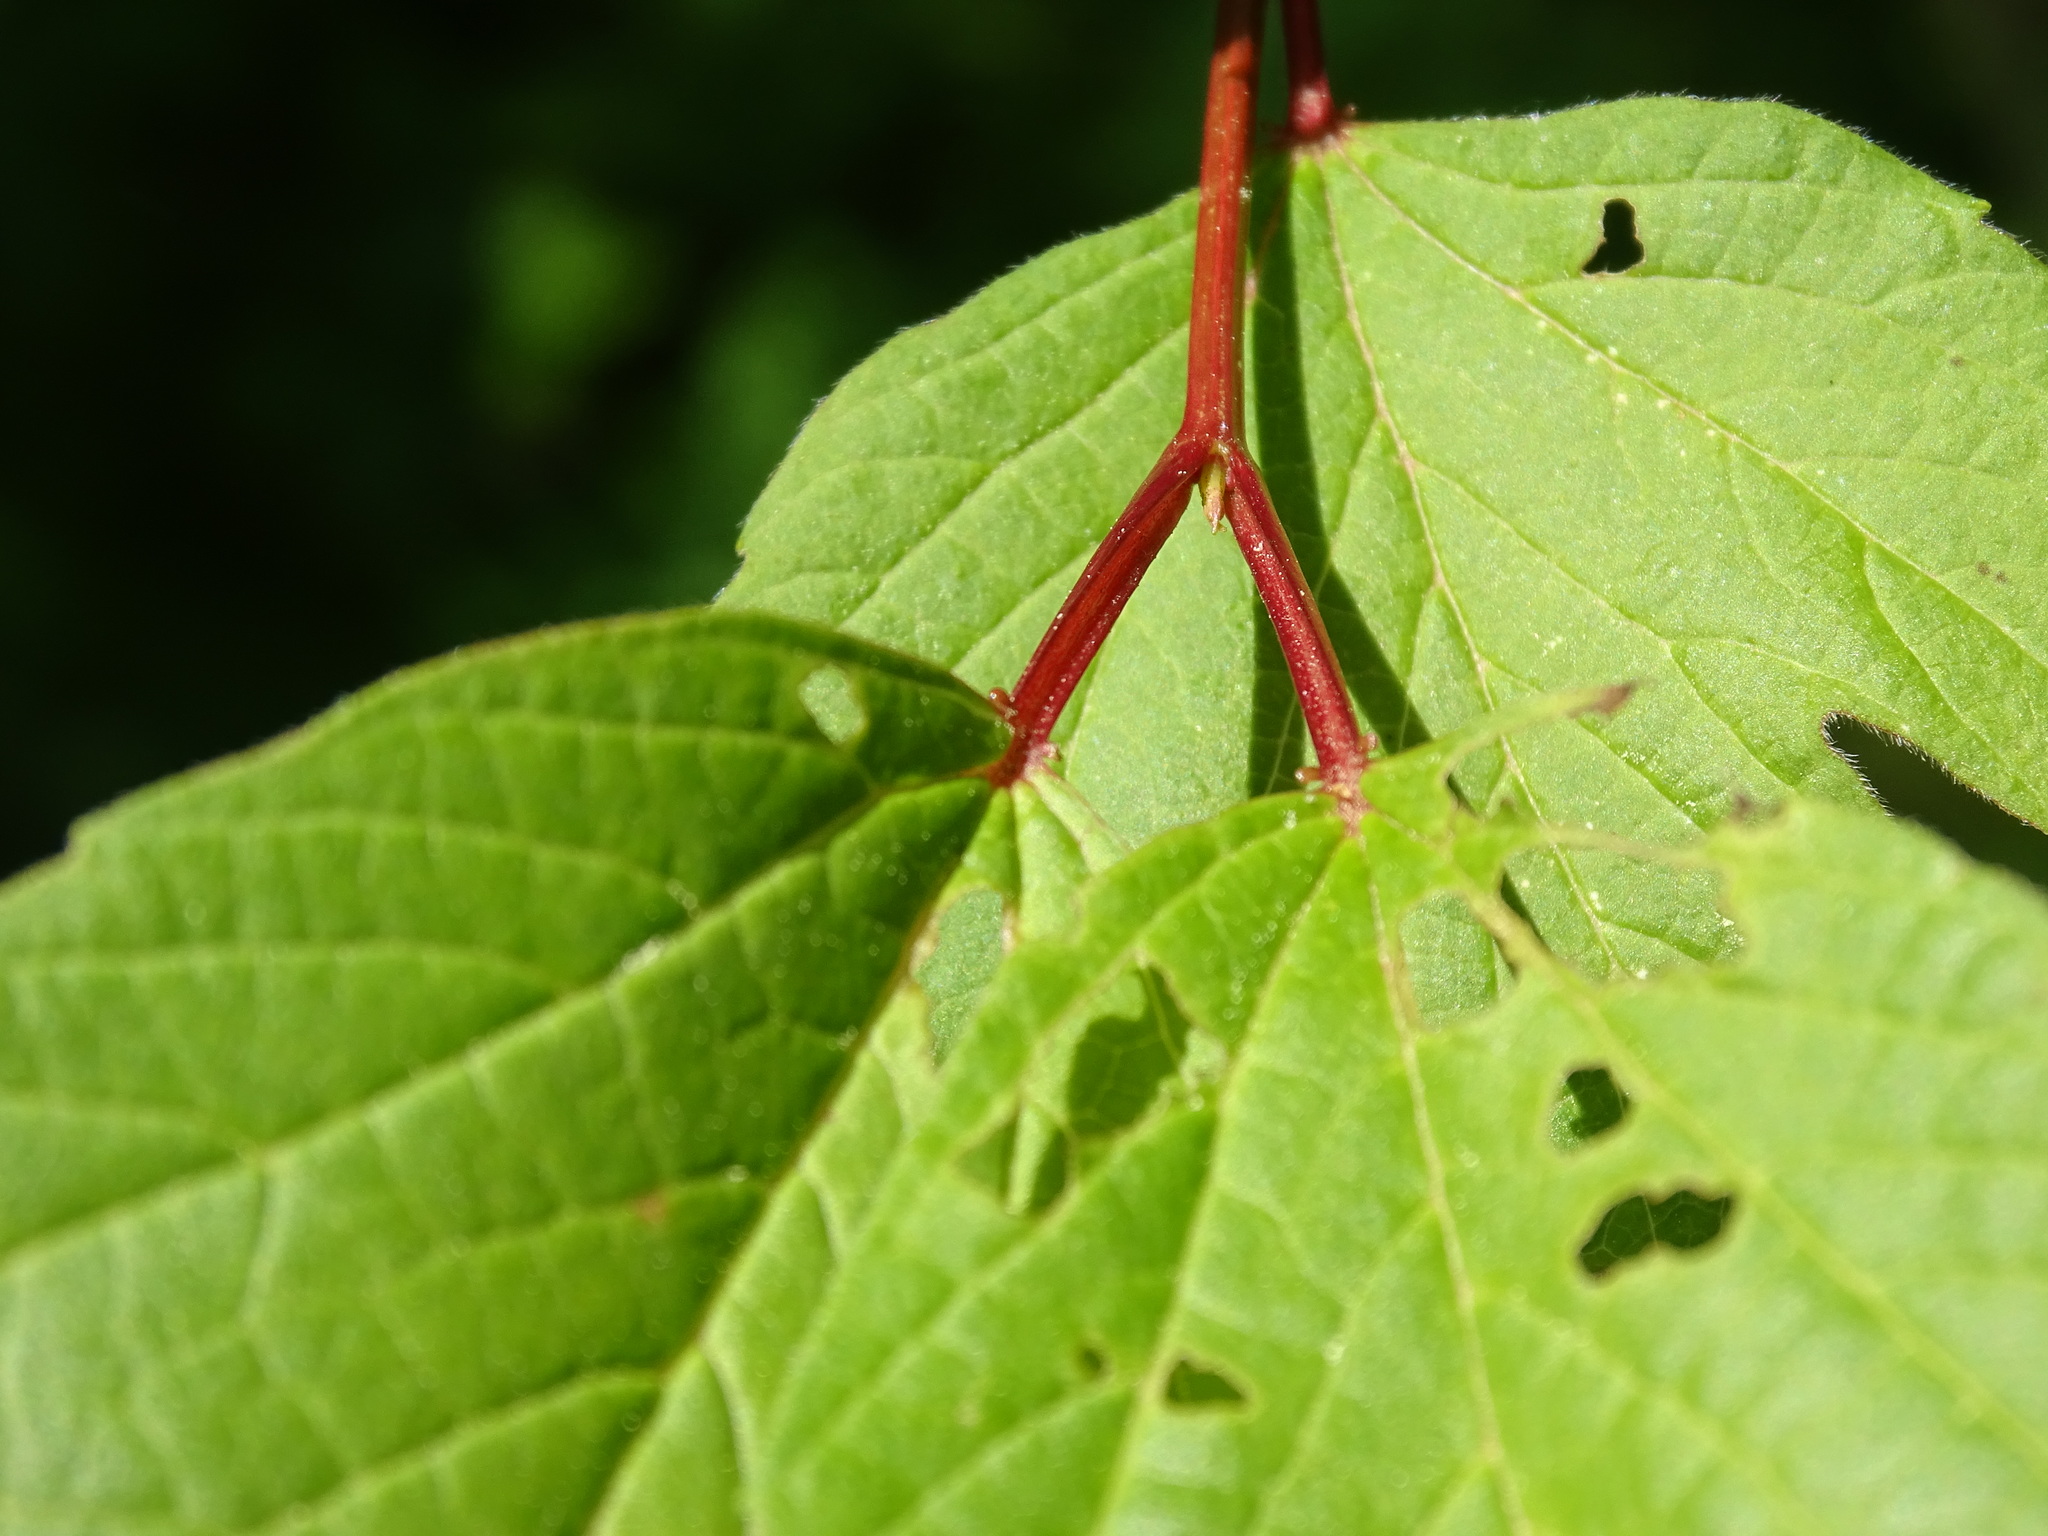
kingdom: Plantae
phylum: Tracheophyta
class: Magnoliopsida
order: Dipsacales
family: Viburnaceae
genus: Viburnum
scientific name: Viburnum trilobum
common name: American cranberrybush
